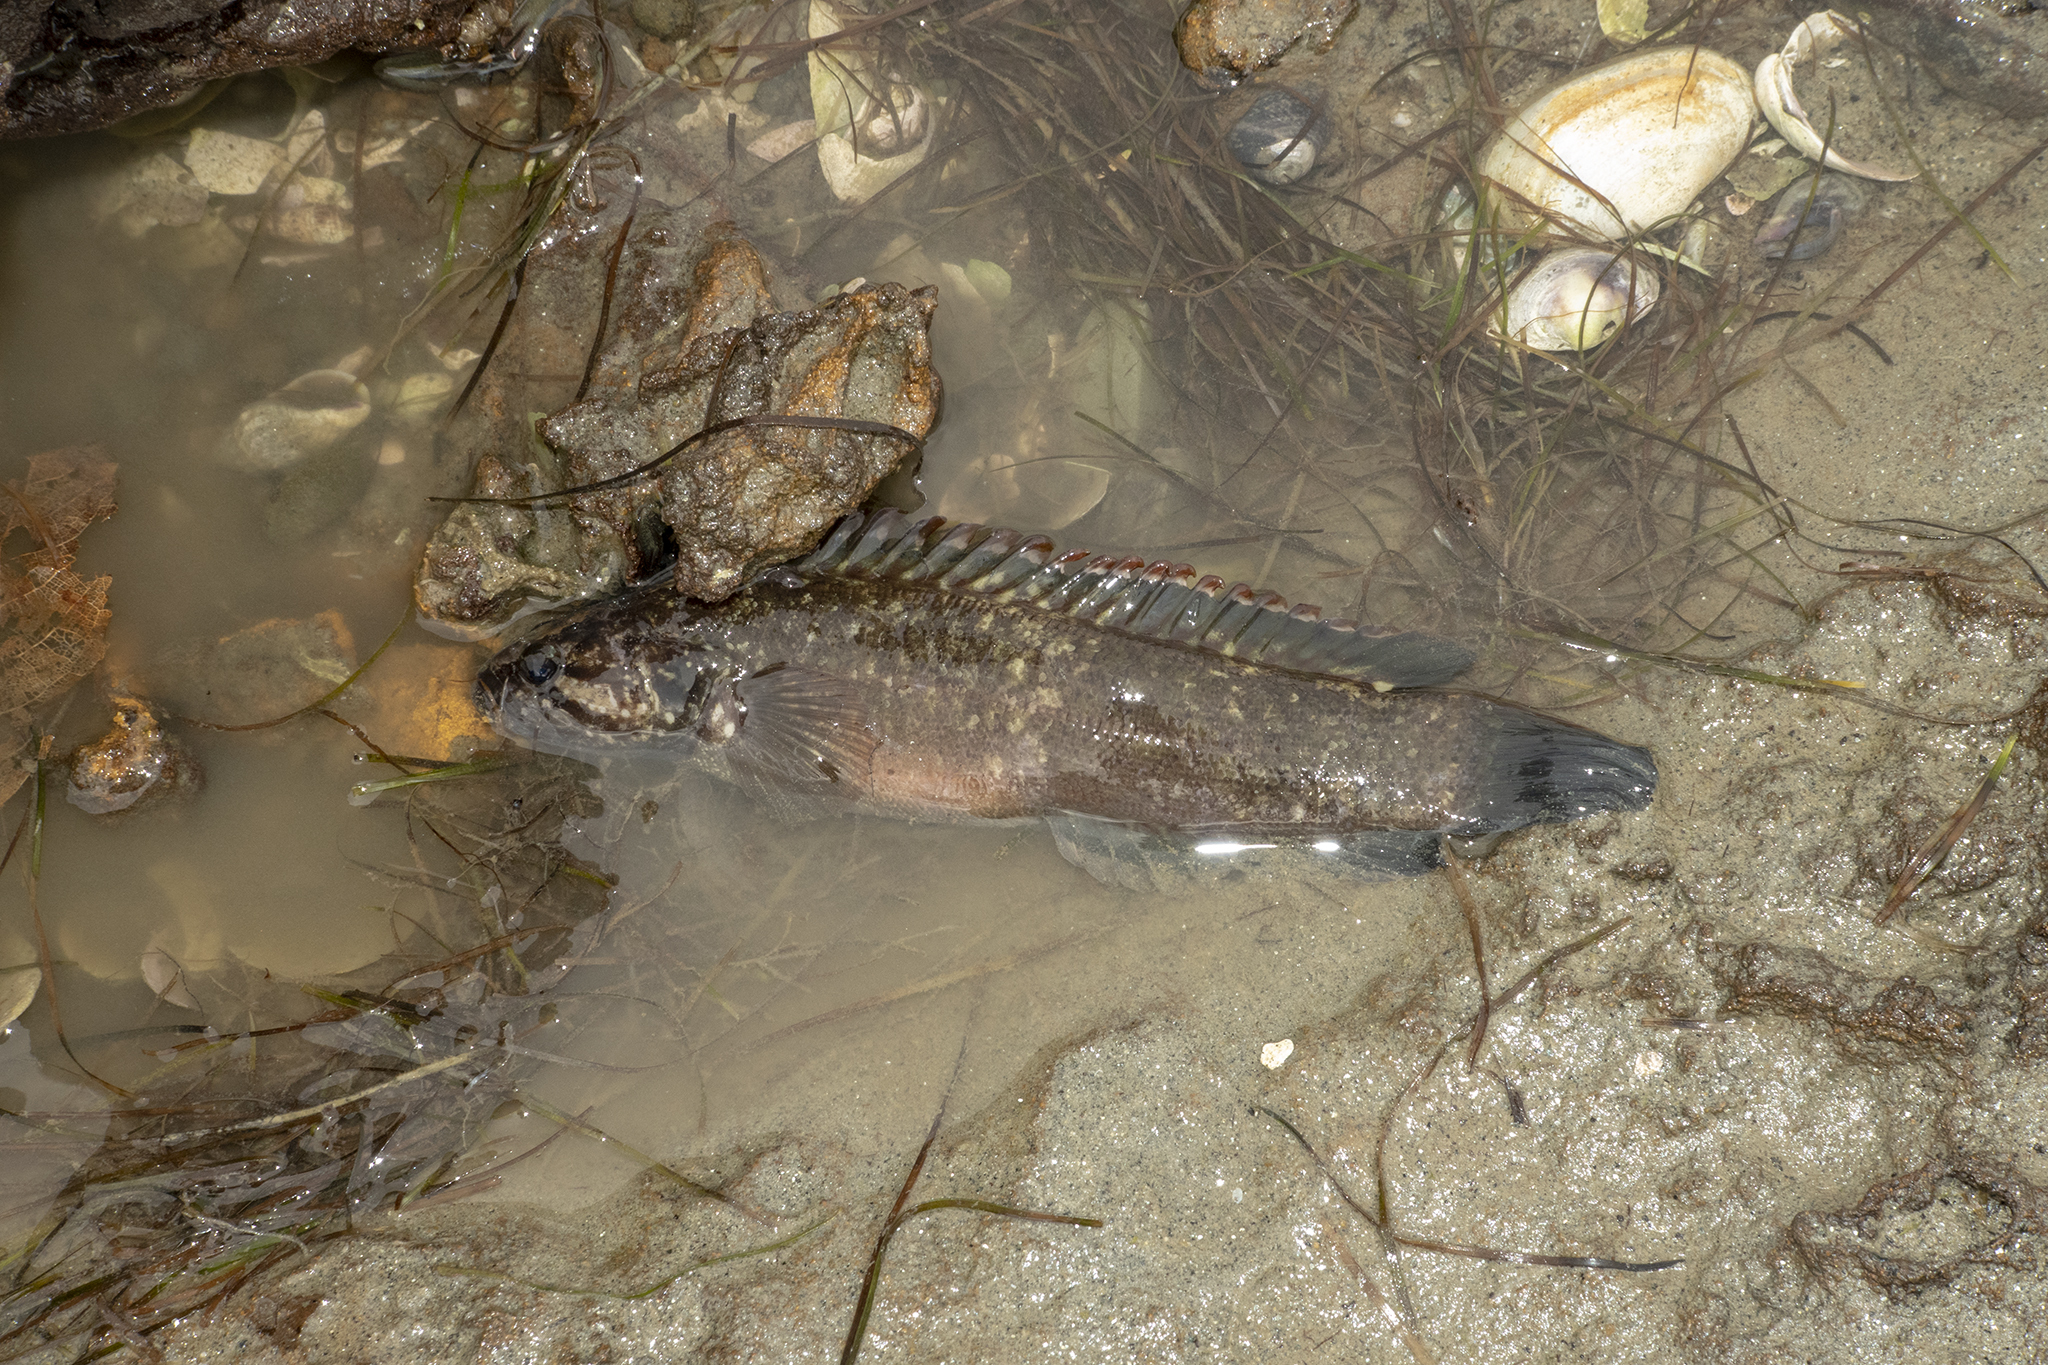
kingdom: Animalia
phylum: Chordata
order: Perciformes
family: Plesiopidae
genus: Acanthoclinus
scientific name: Acanthoclinus fuscus
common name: Olive rockfish
